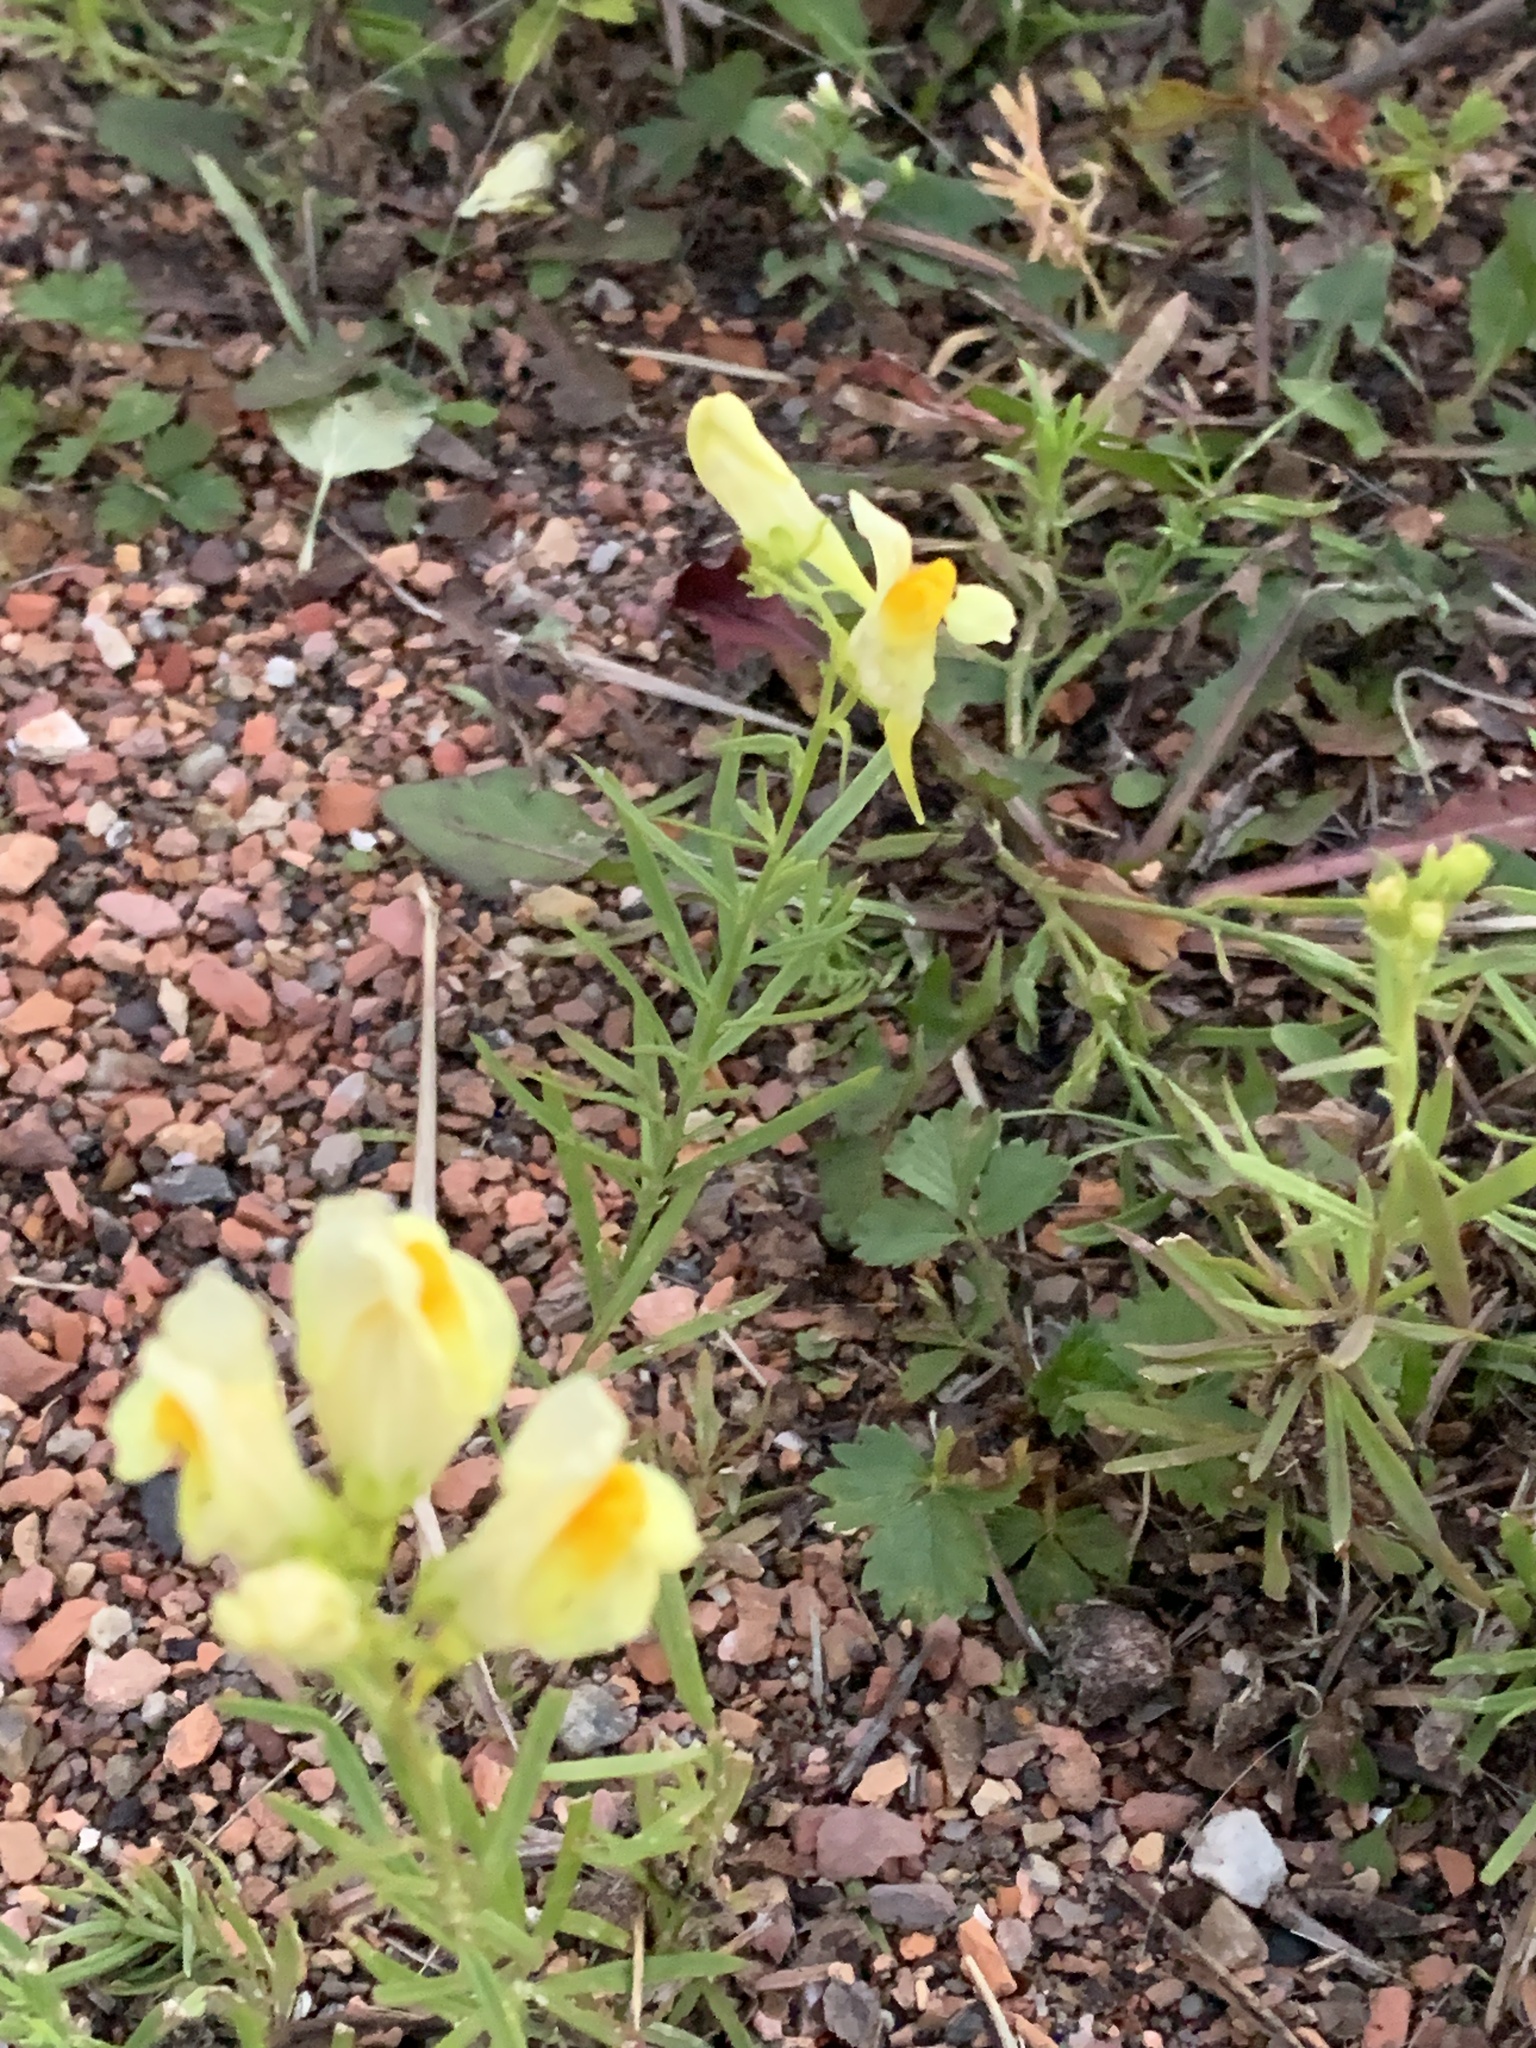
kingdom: Plantae
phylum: Tracheophyta
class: Magnoliopsida
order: Lamiales
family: Plantaginaceae
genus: Linaria
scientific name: Linaria vulgaris
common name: Butter and eggs
